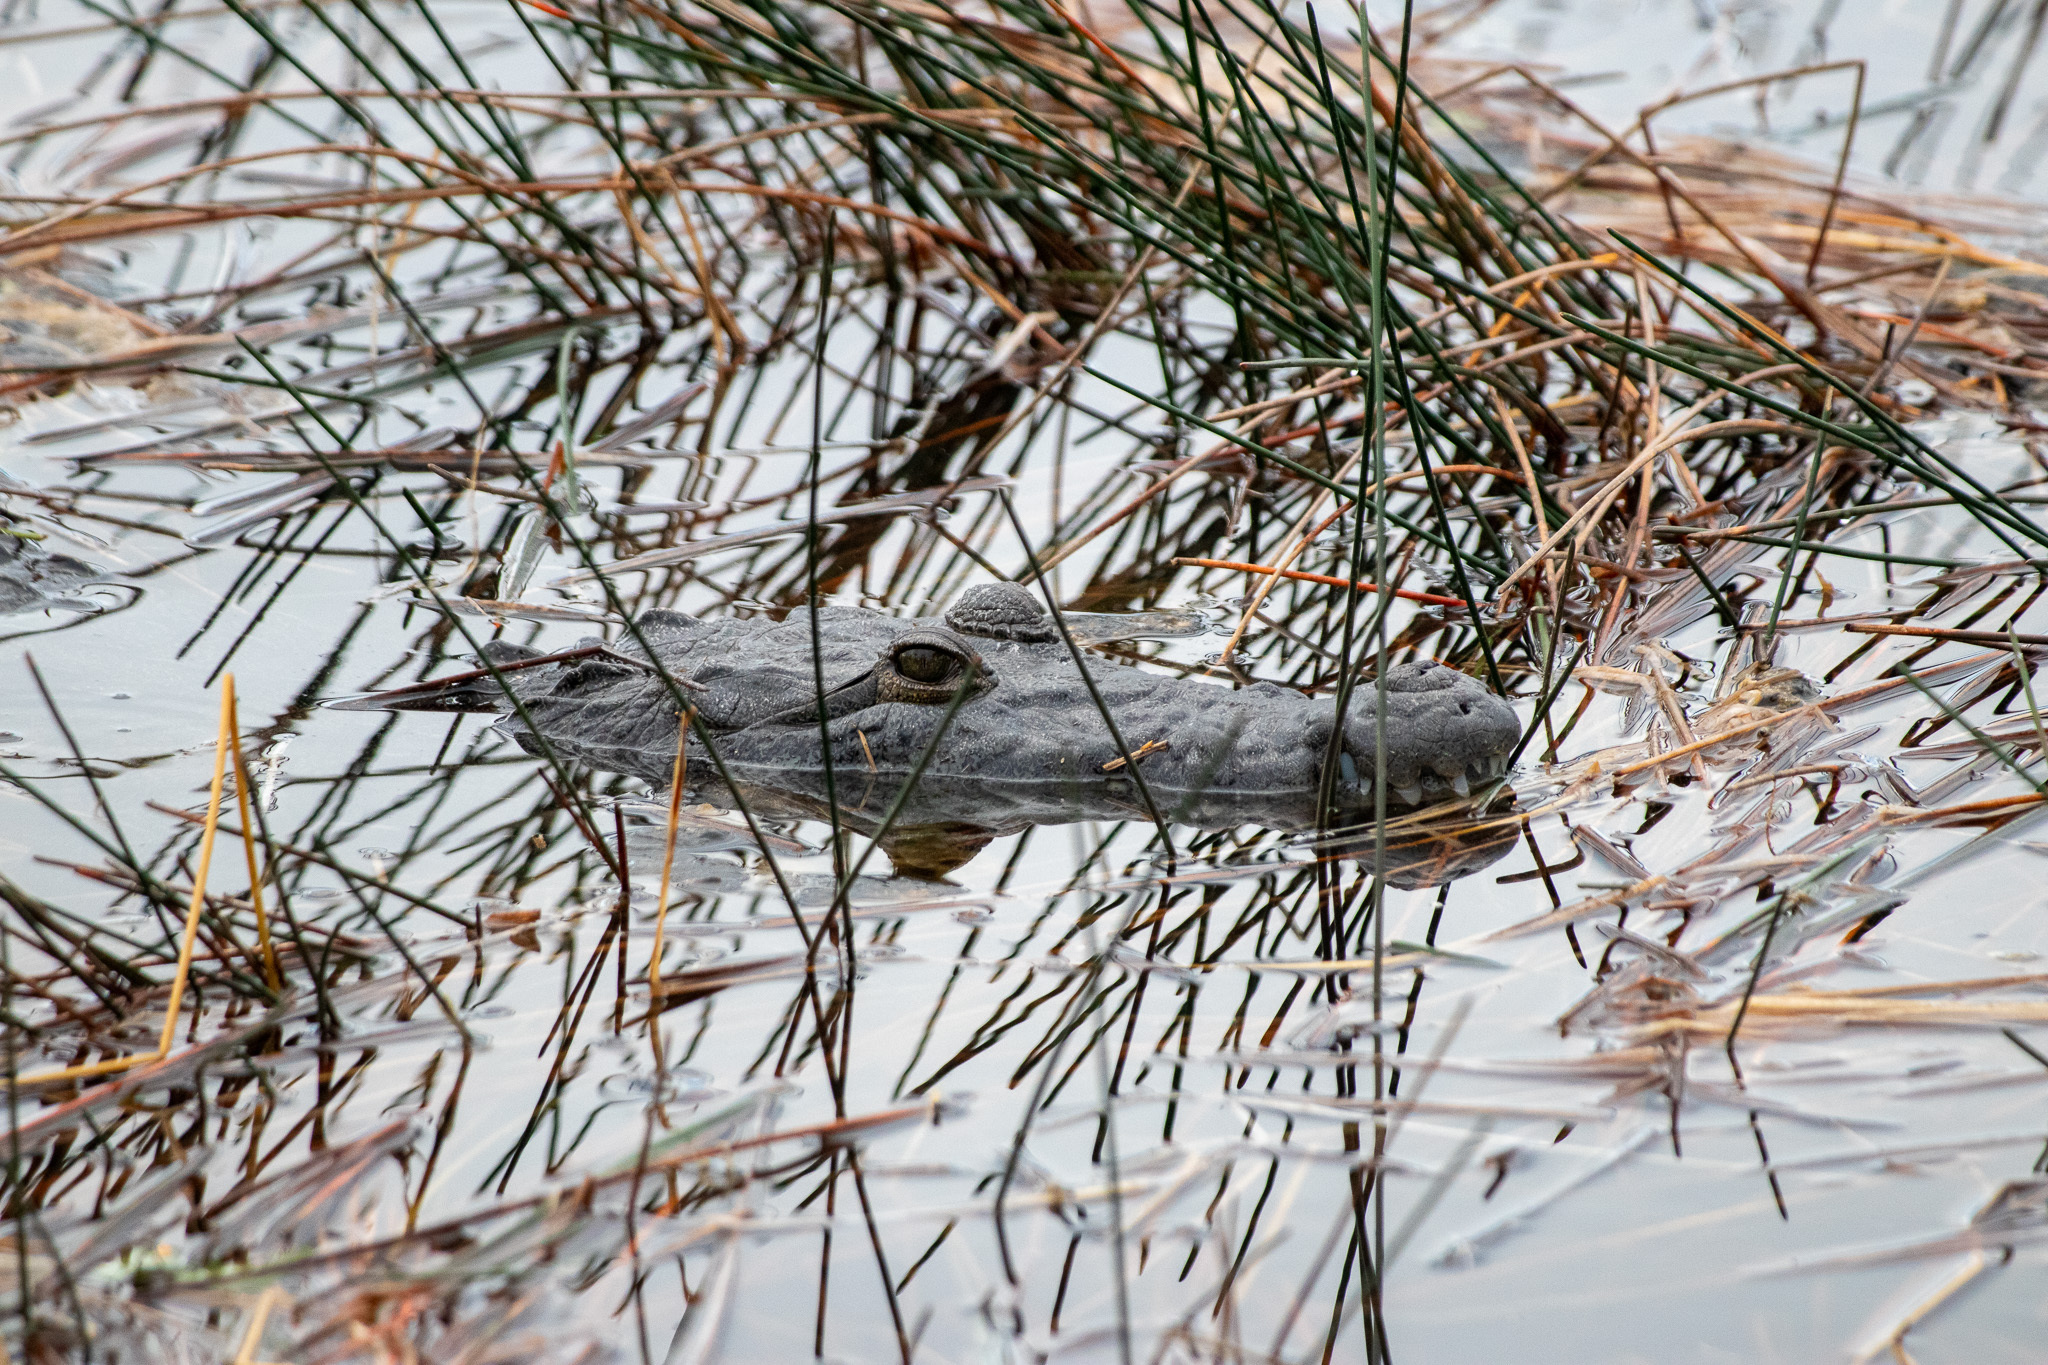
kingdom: Animalia
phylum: Chordata
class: Crocodylia
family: Crocodylidae
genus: Crocodylus
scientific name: Crocodylus moreletii
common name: Morelet's crocodile
